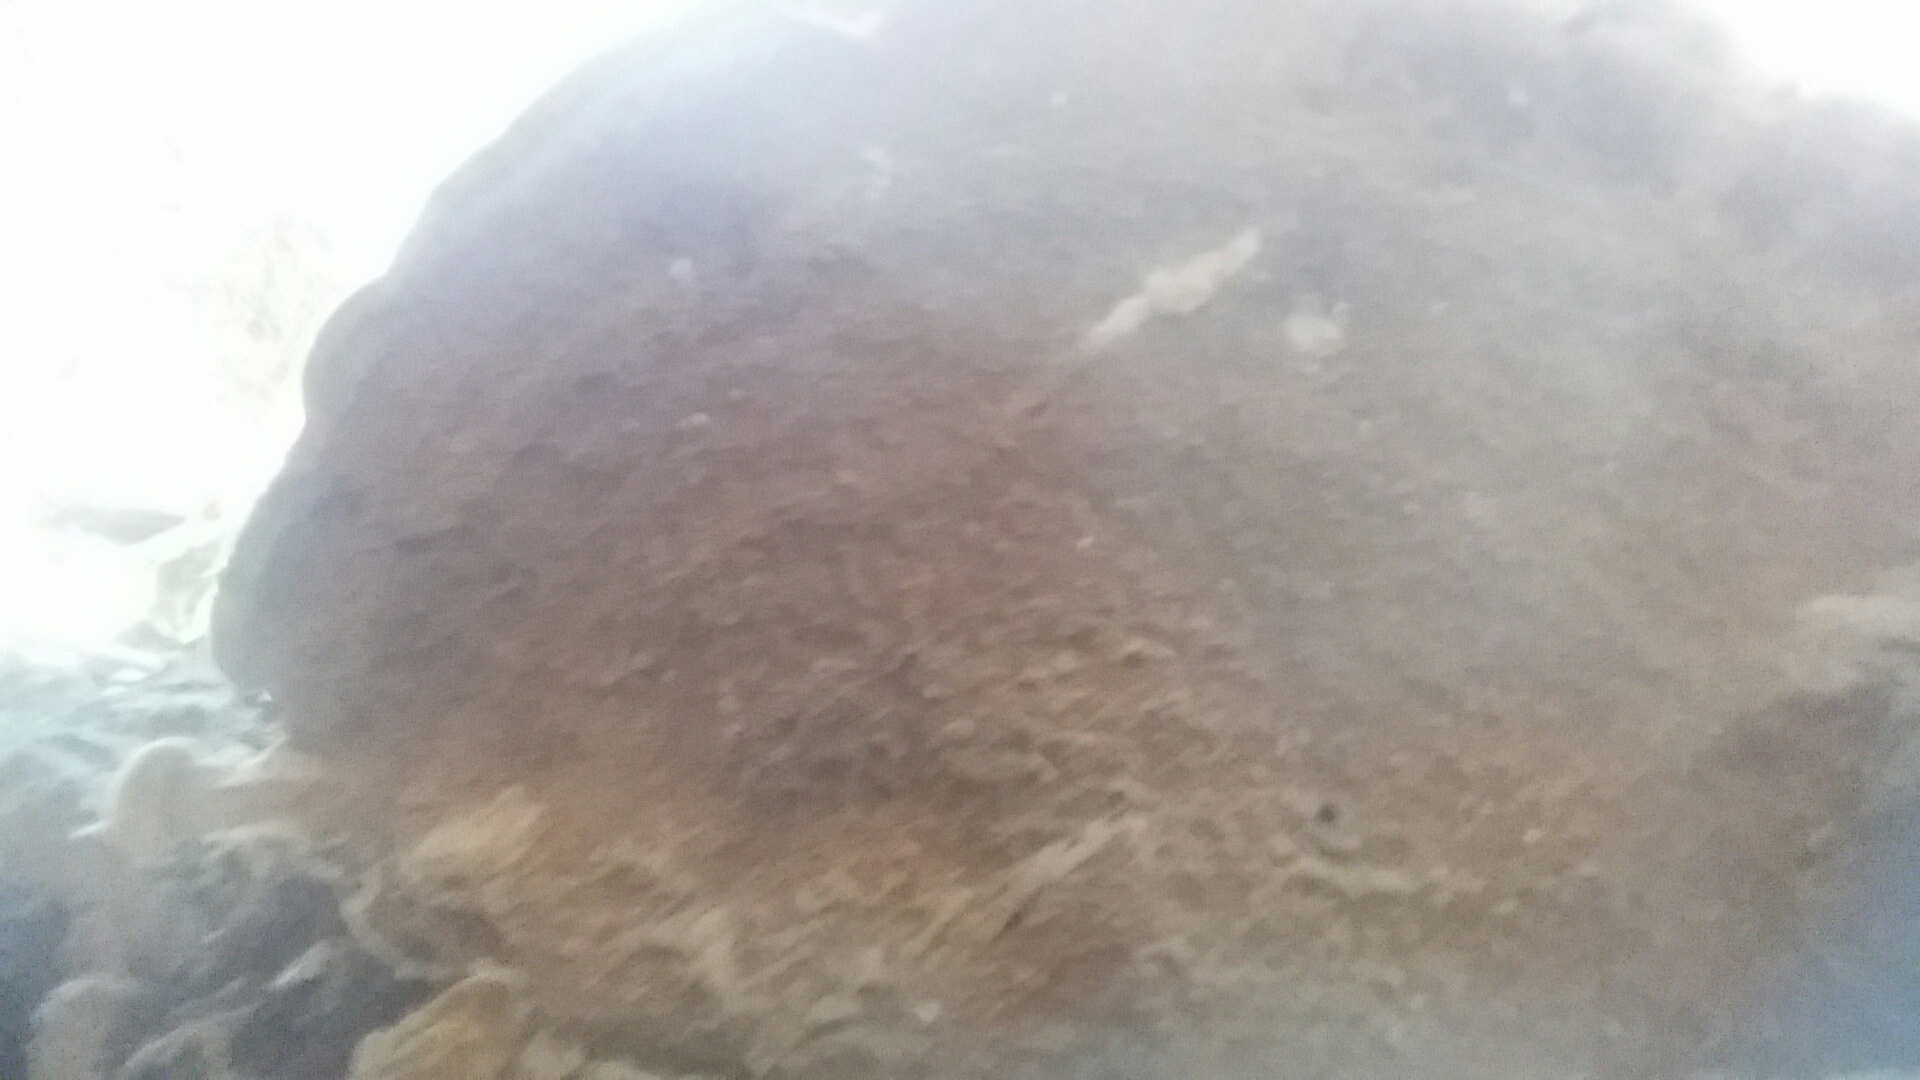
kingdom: Fungi
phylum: Basidiomycota
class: Agaricomycetes
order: Hymenochaetales
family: Hymenochaetaceae
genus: Phellinus
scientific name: Phellinus gilvus
